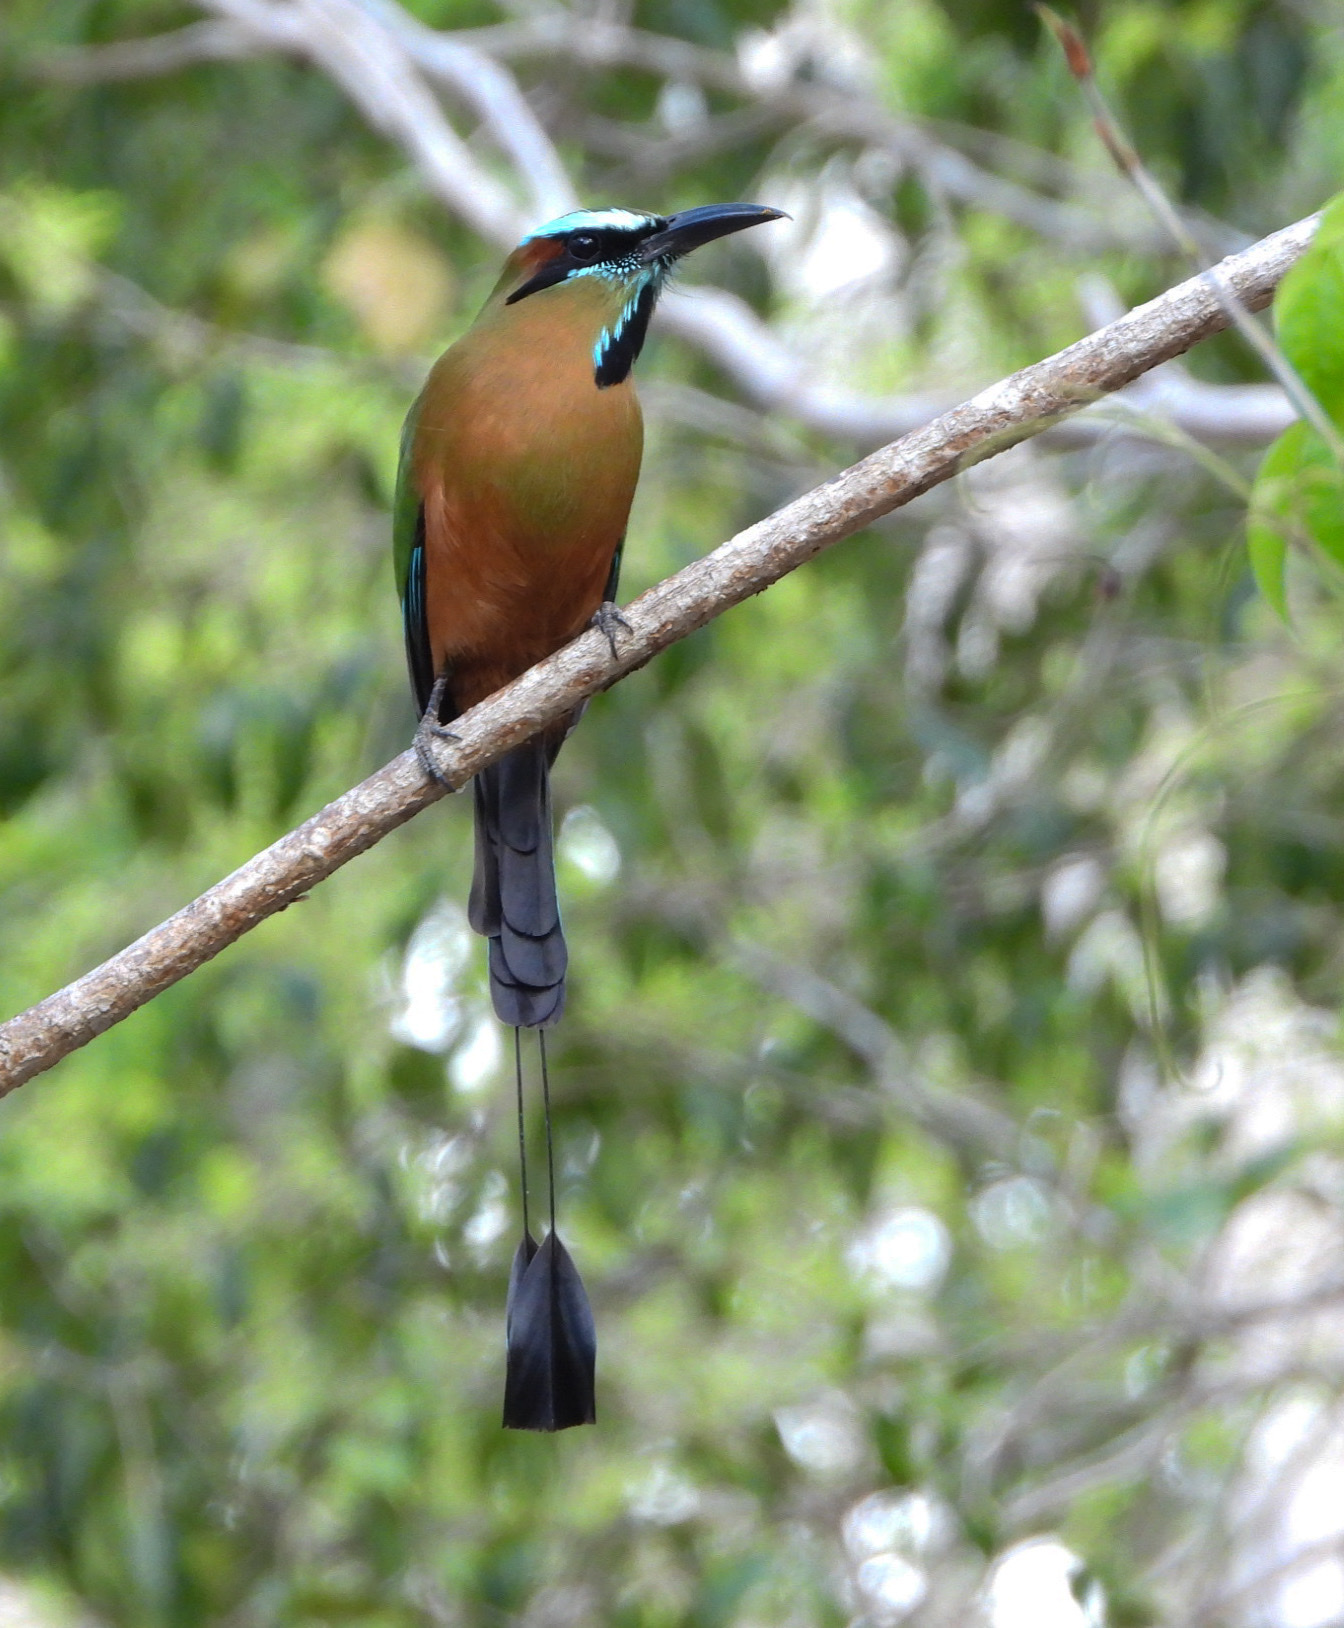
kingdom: Animalia
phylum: Chordata
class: Aves
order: Coraciiformes
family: Momotidae
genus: Eumomota
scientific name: Eumomota superciliosa
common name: Turquoise-browed motmot
